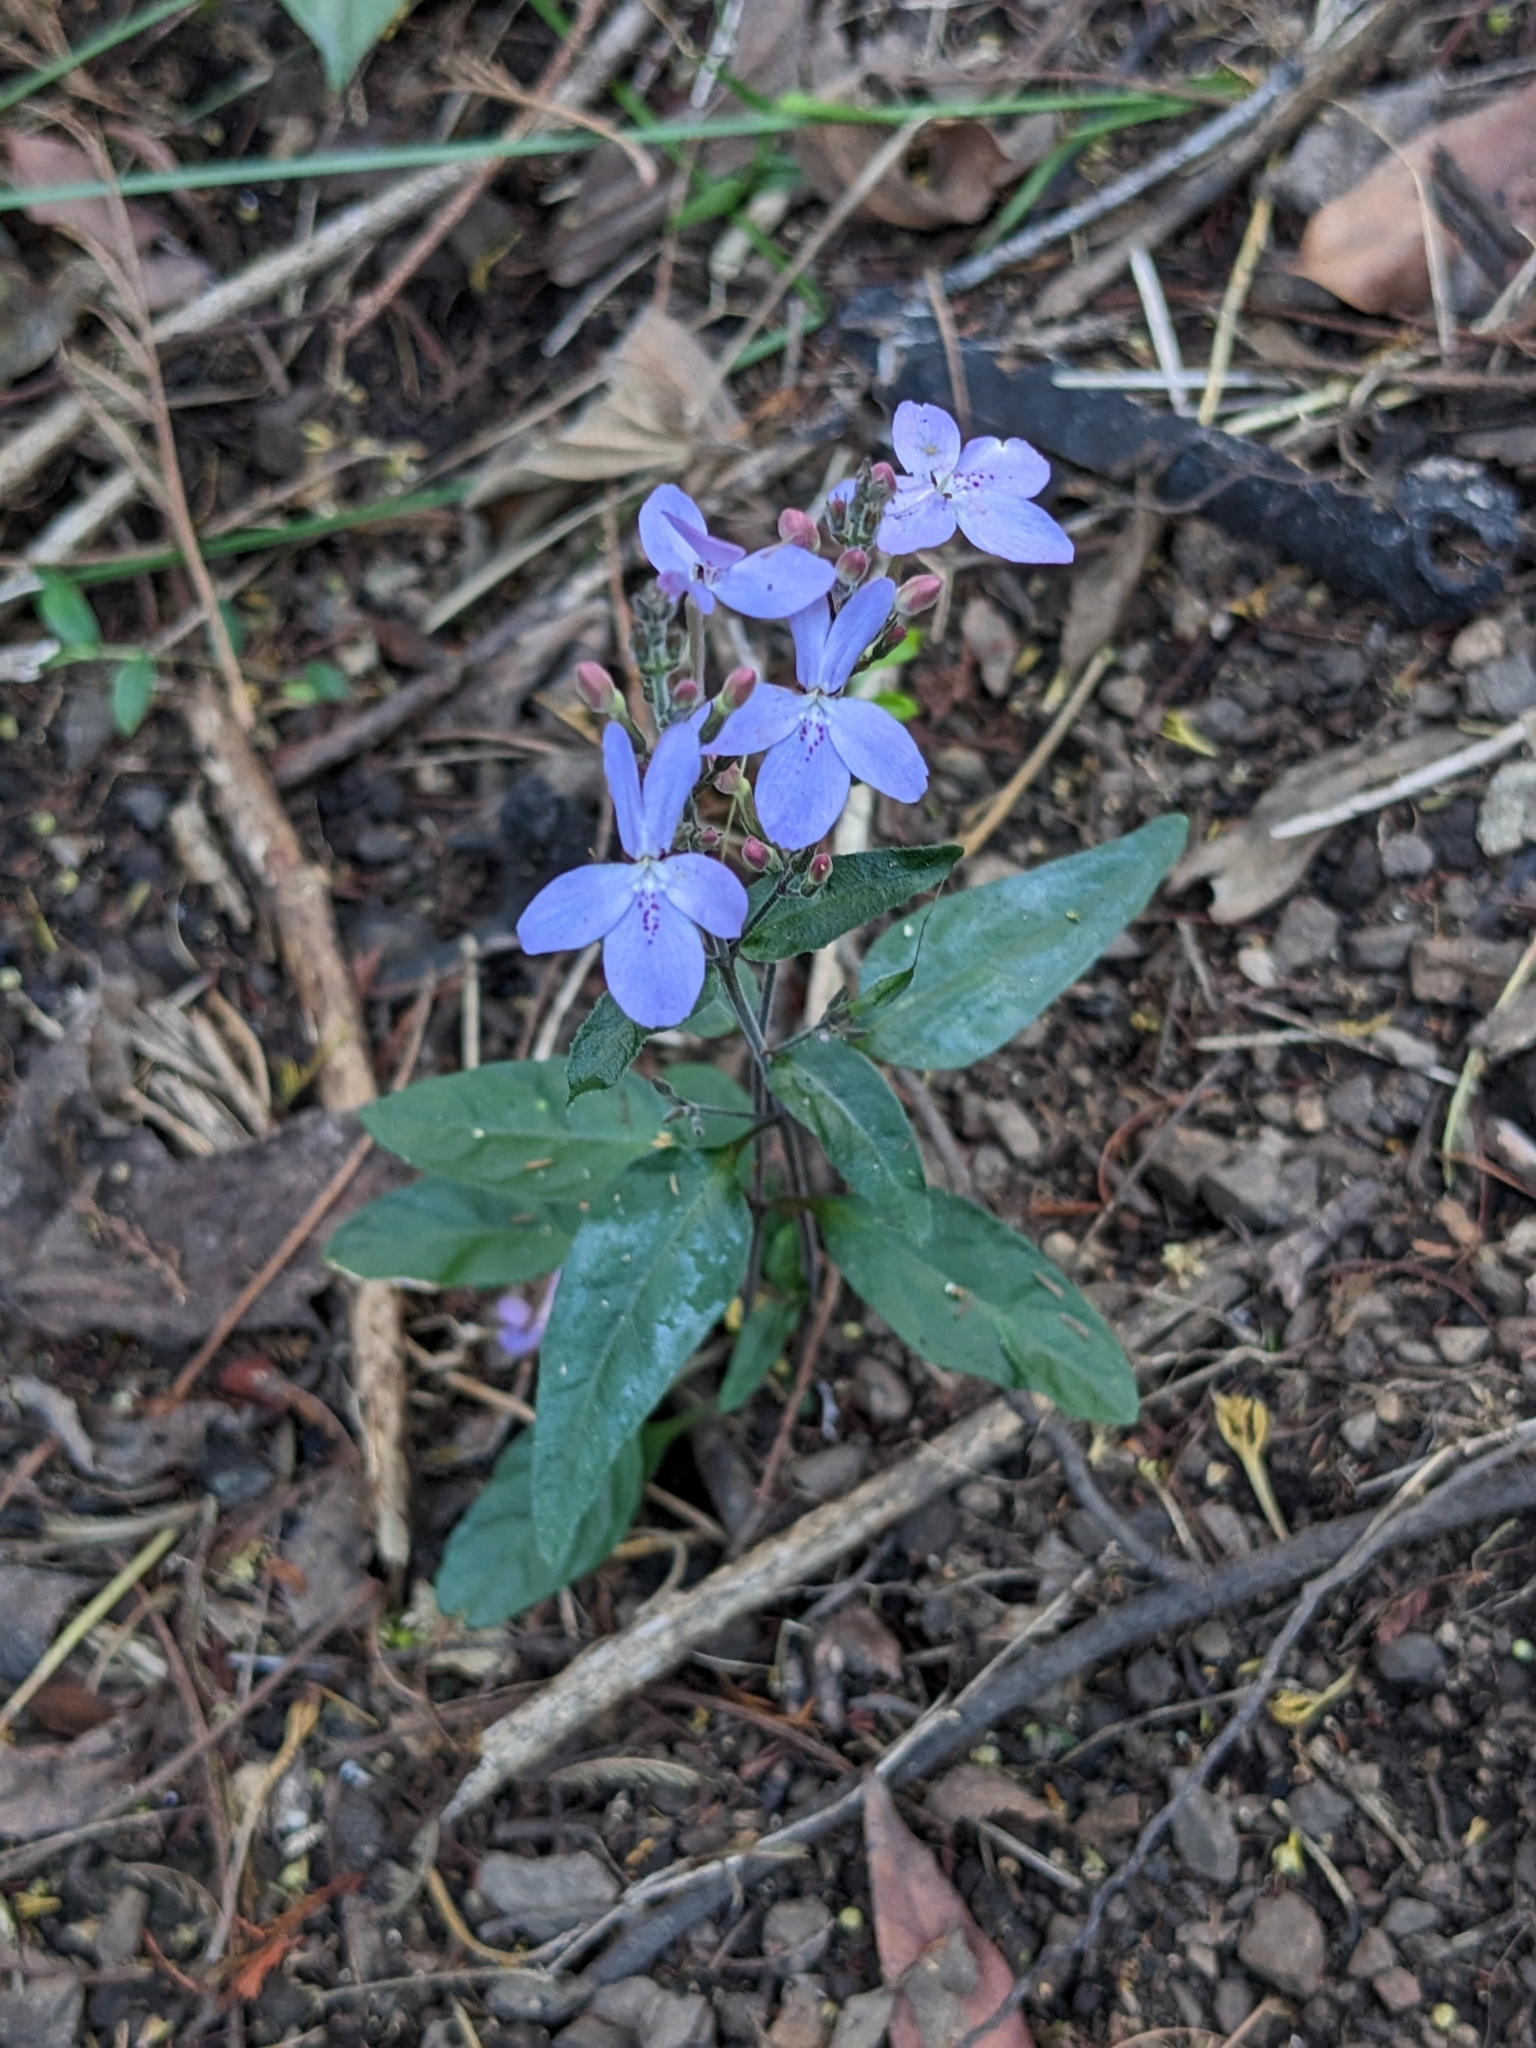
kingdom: Plantae
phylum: Tracheophyta
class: Magnoliopsida
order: Lamiales
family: Acanthaceae
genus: Pseuderanthemum
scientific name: Pseuderanthemum variabile
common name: Night and afternoon
